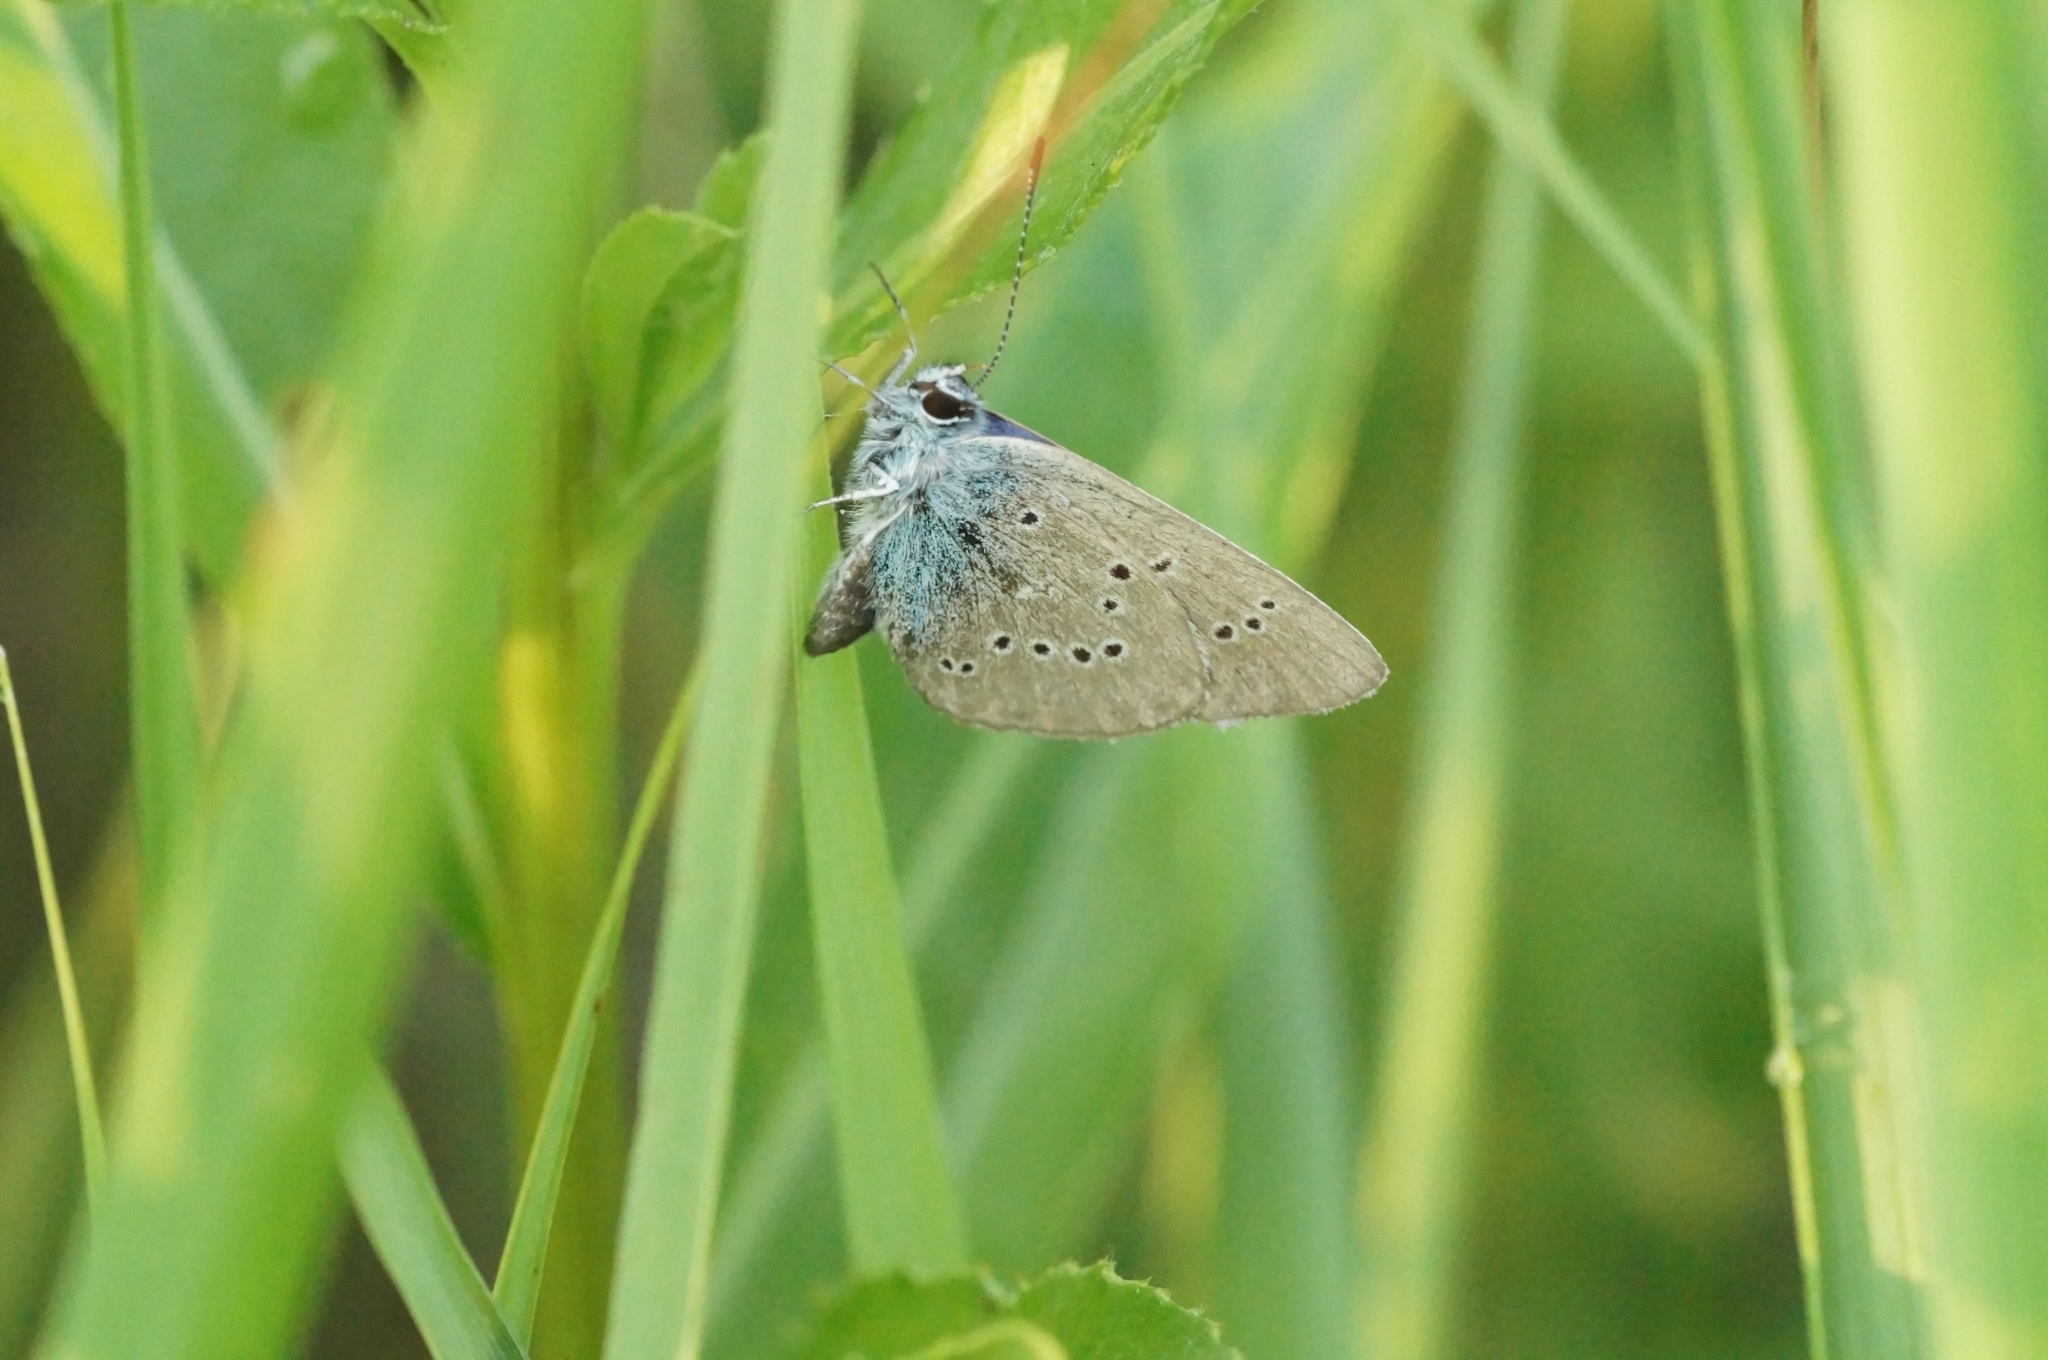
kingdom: Animalia
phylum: Arthropoda
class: Insecta
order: Lepidoptera
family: Lycaenidae
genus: Cyaniris
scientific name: Cyaniris semiargus
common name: Mazarine blue
